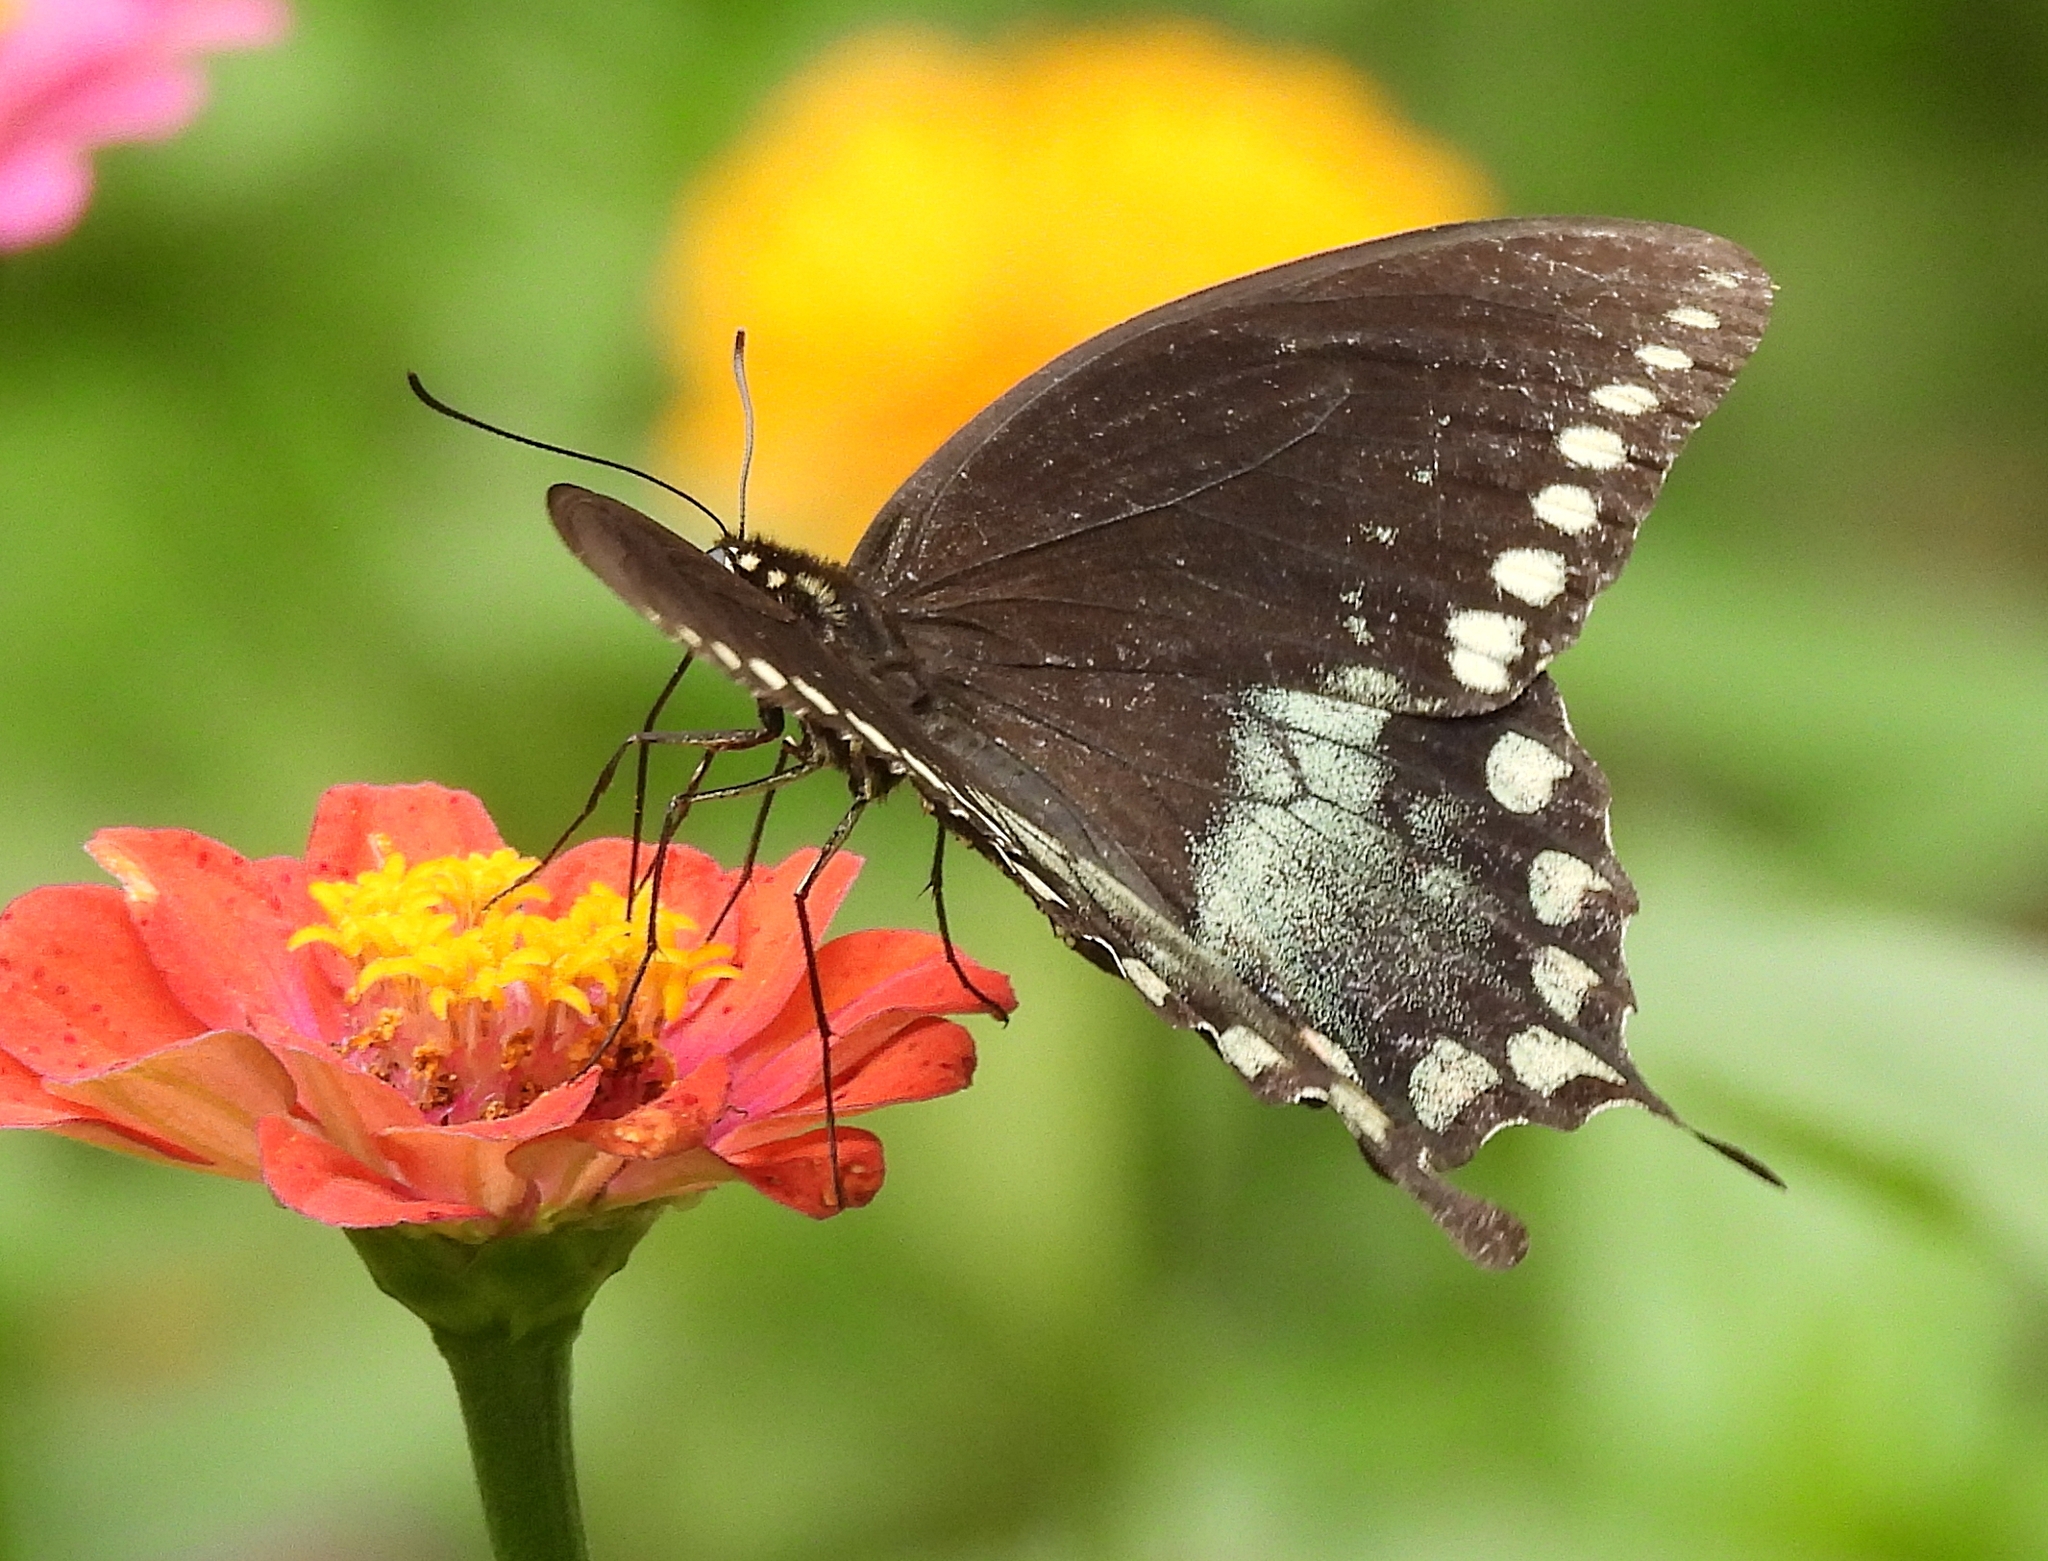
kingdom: Animalia
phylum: Arthropoda
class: Insecta
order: Lepidoptera
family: Papilionidae
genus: Papilio
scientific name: Papilio troilus
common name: Spicebush swallowtail
